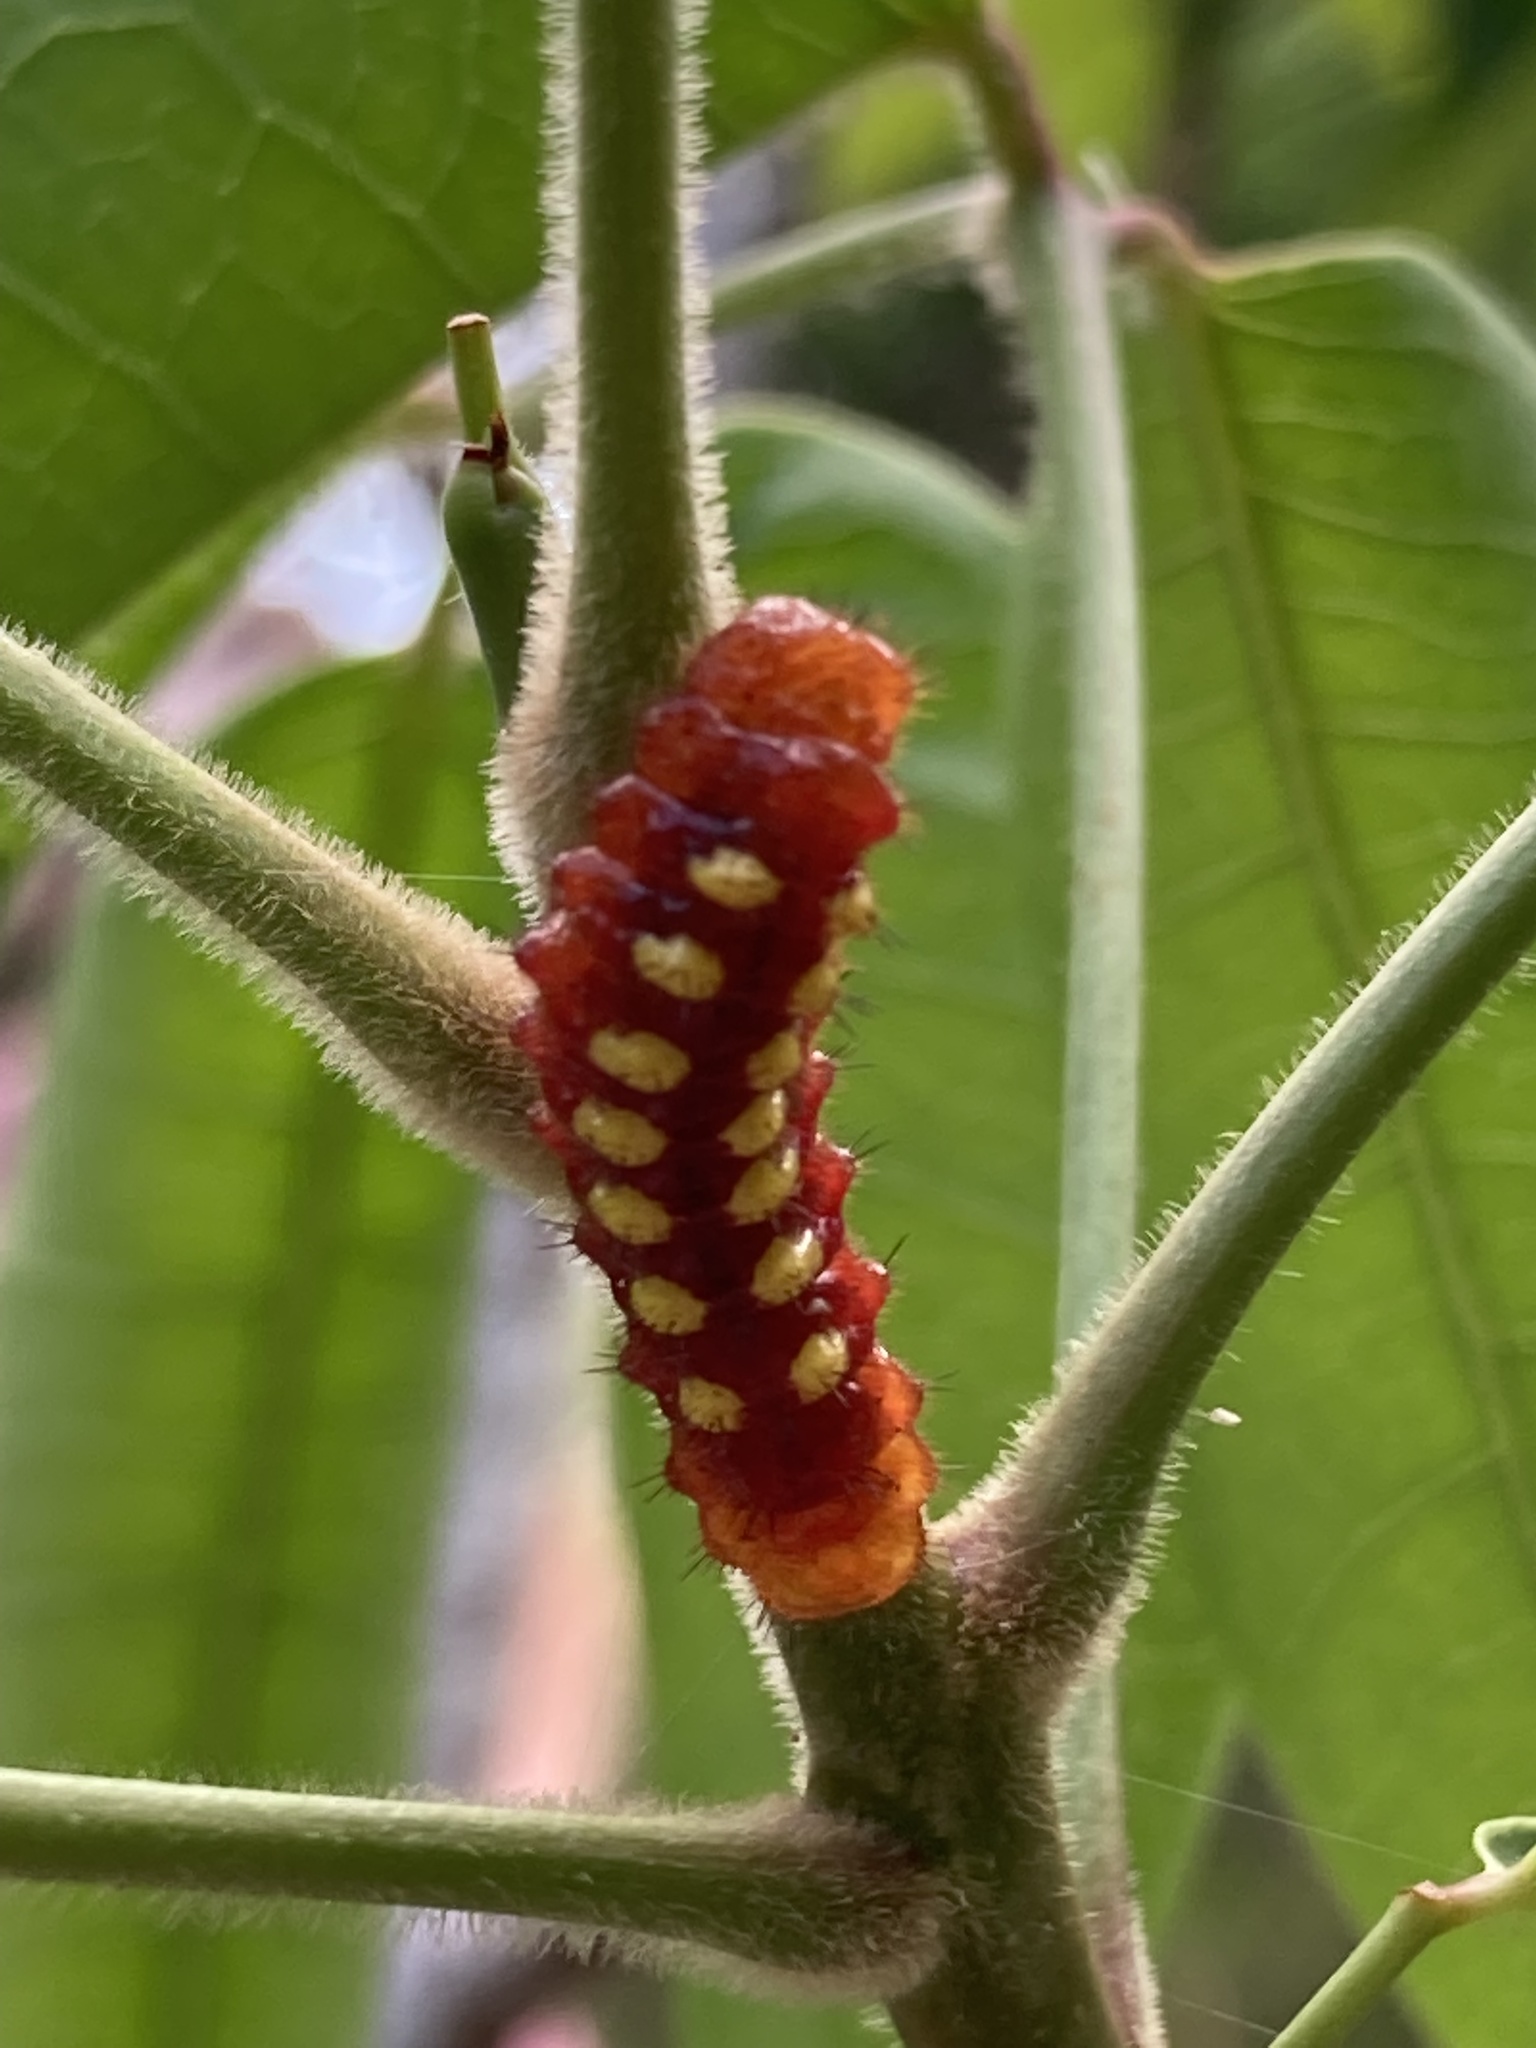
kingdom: Animalia
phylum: Arthropoda
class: Insecta
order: Lepidoptera
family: Lycaenidae
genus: Eumaeus
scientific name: Eumaeus atala
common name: Atala
